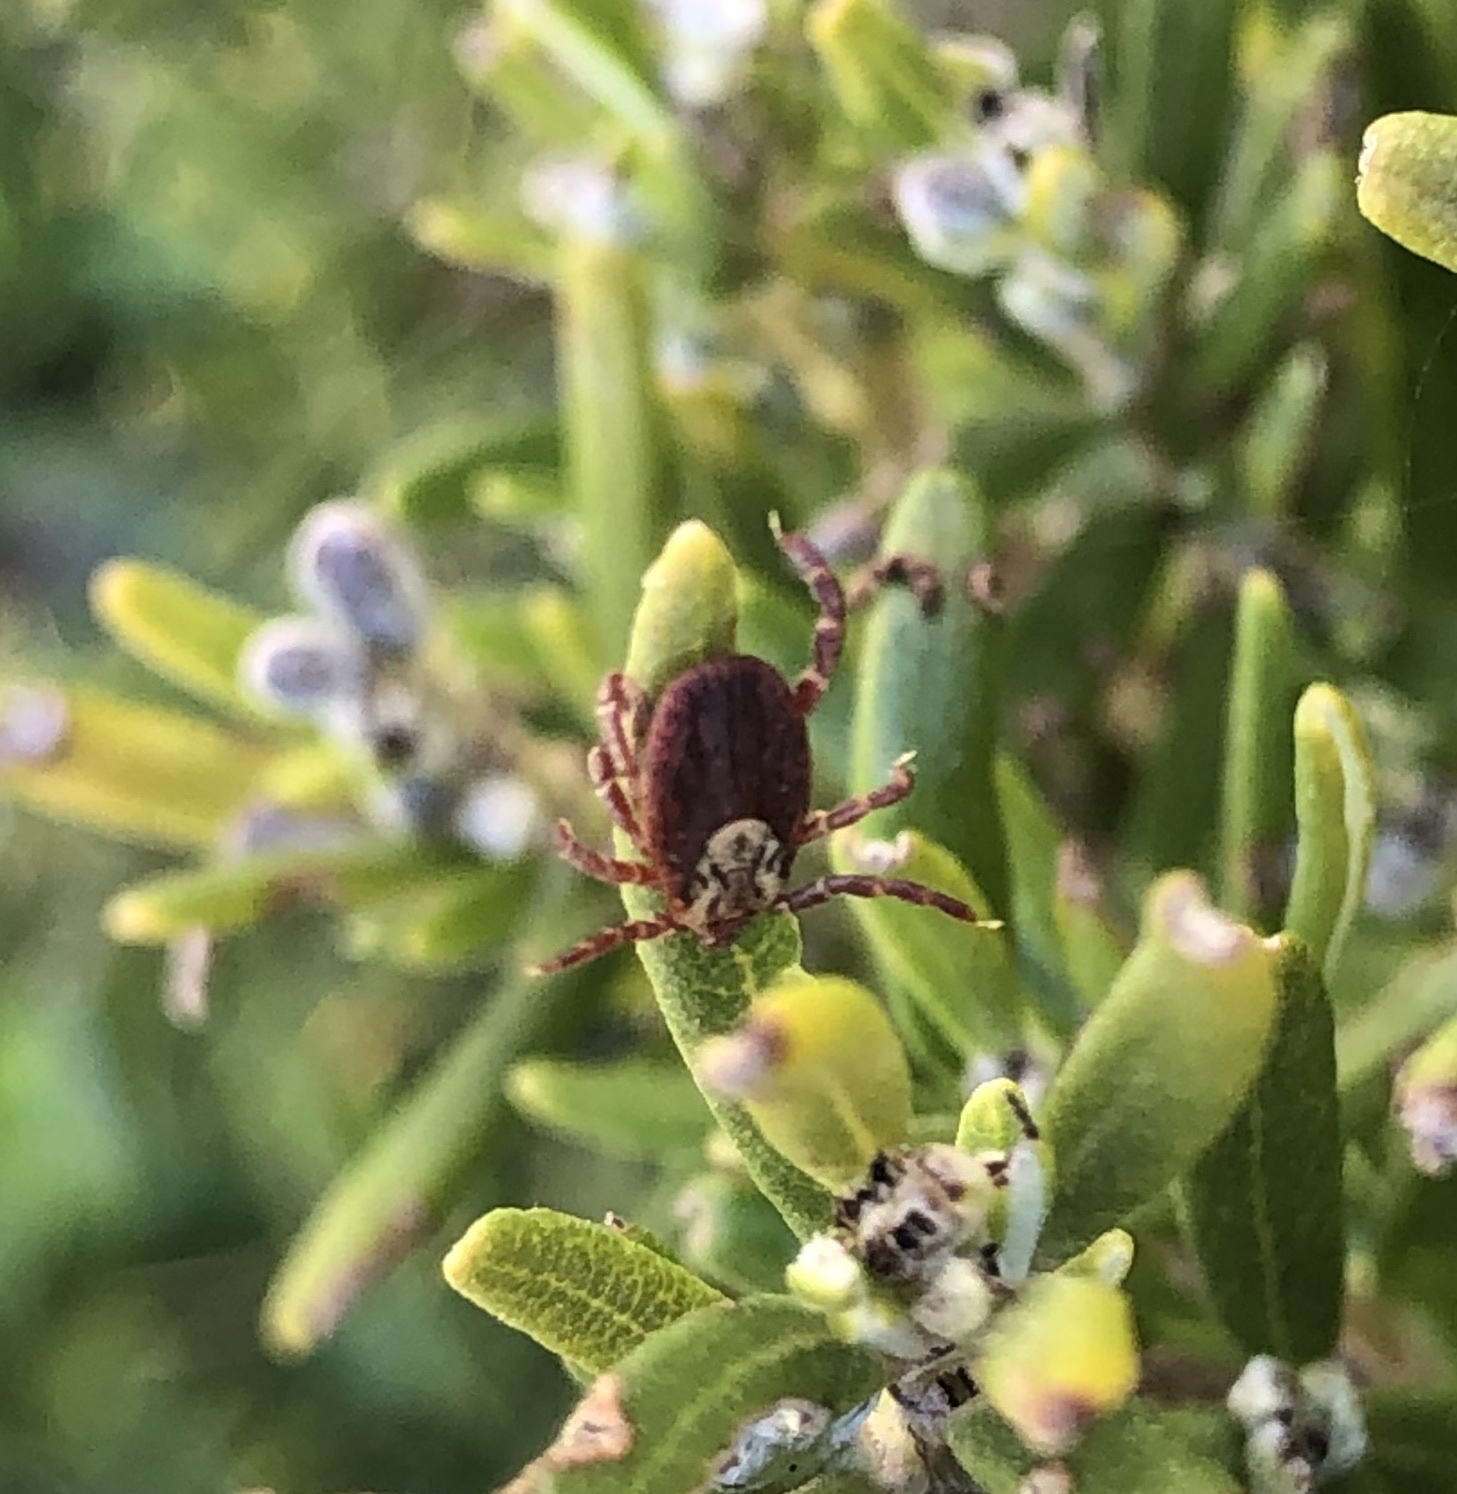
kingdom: Animalia
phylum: Arthropoda
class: Arachnida
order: Ixodida
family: Ixodidae
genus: Dermacentor
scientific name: Dermacentor
